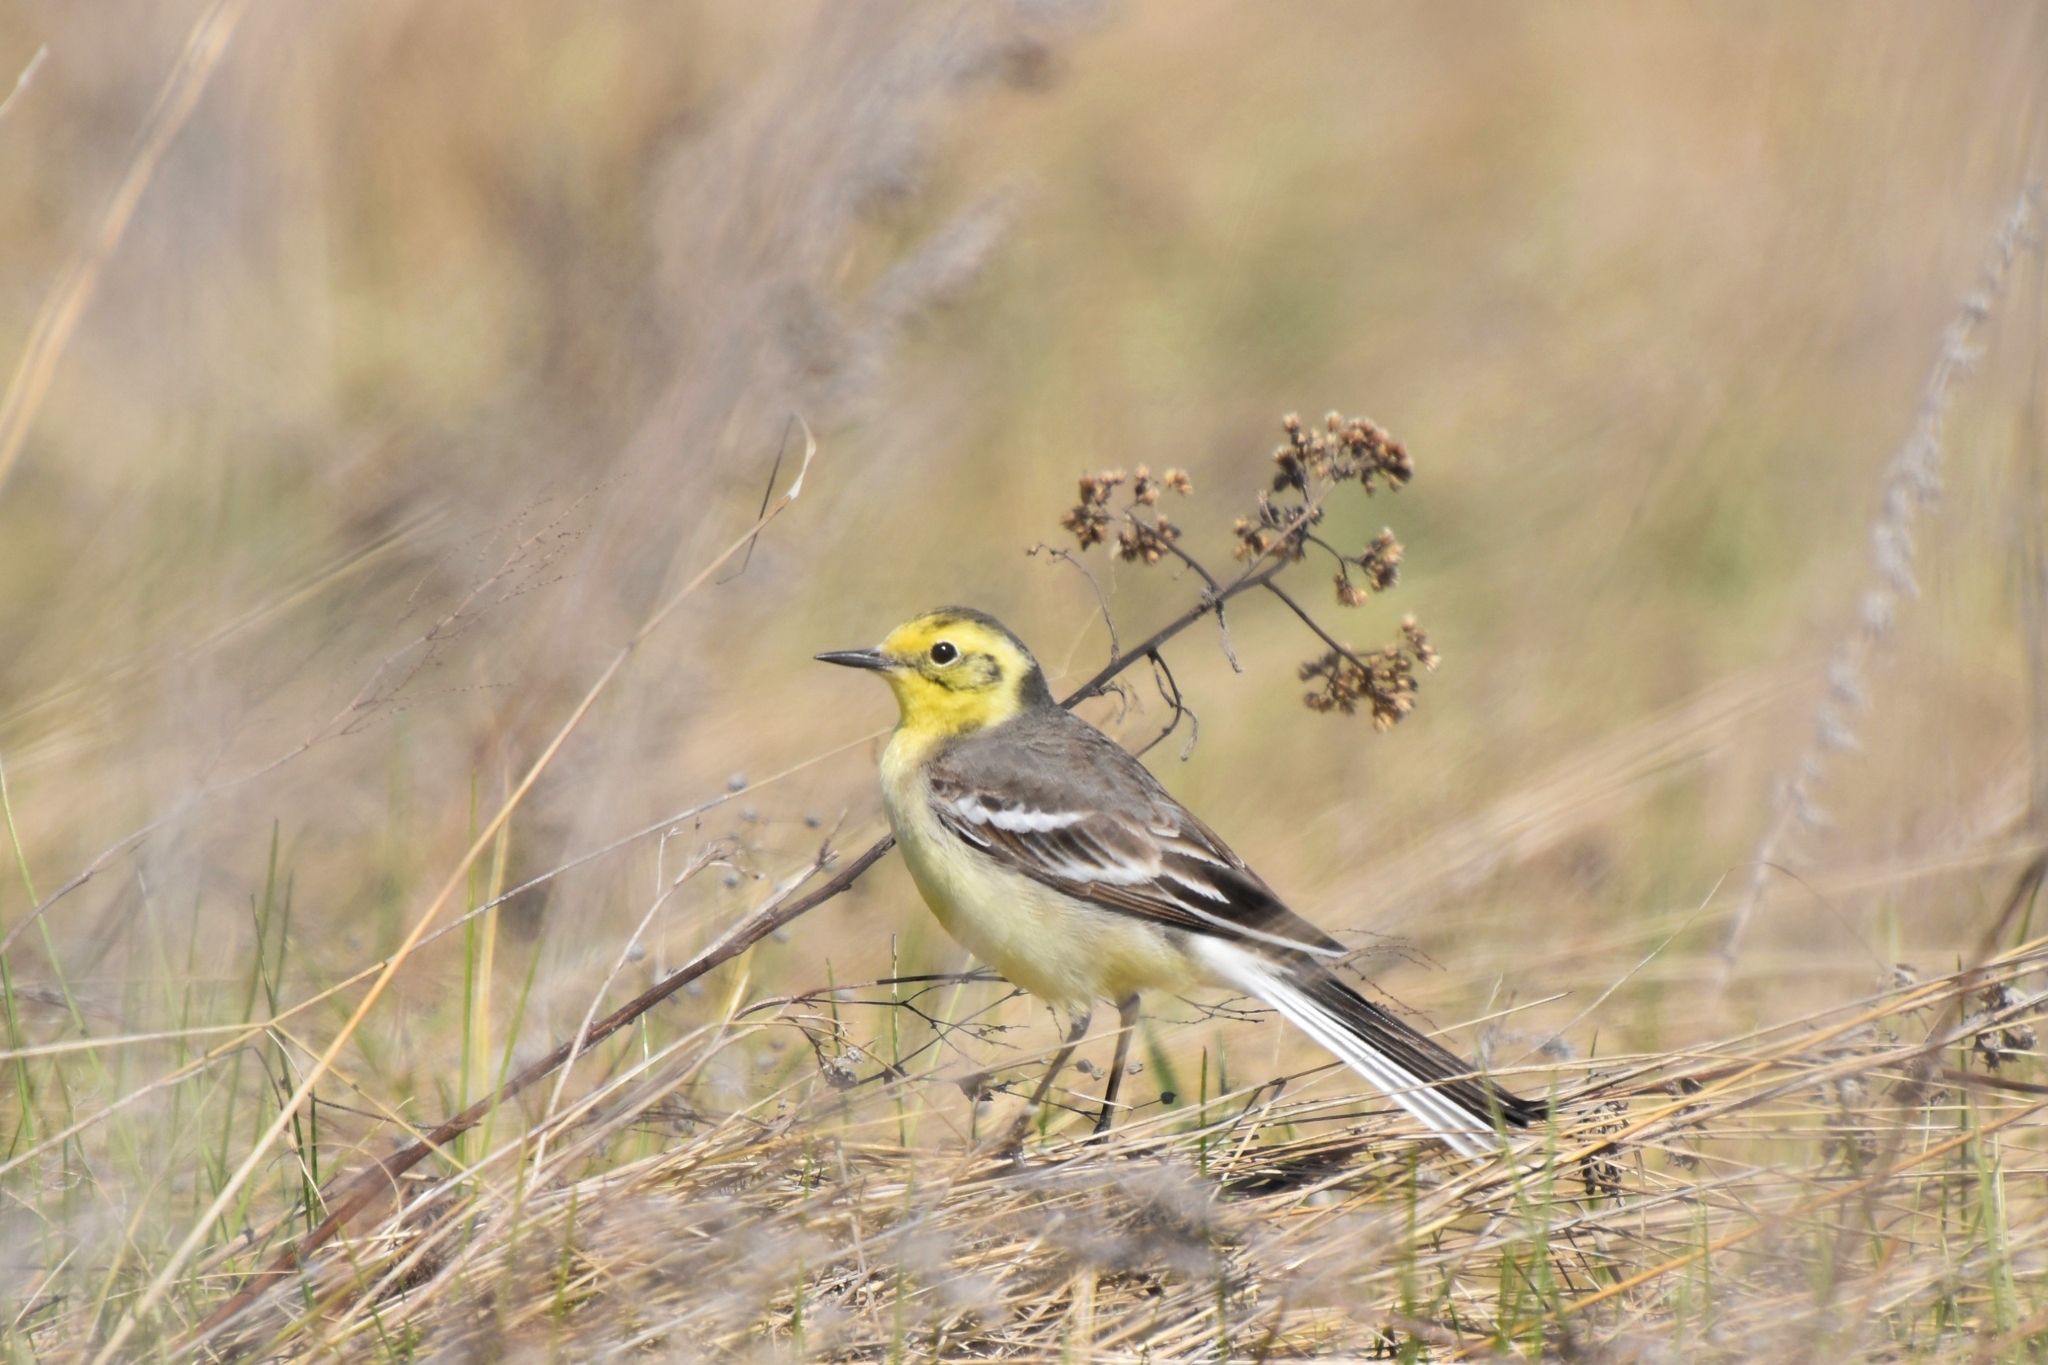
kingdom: Animalia
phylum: Chordata
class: Aves
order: Passeriformes
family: Motacillidae
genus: Motacilla
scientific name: Motacilla citreola
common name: Citrine wagtail
